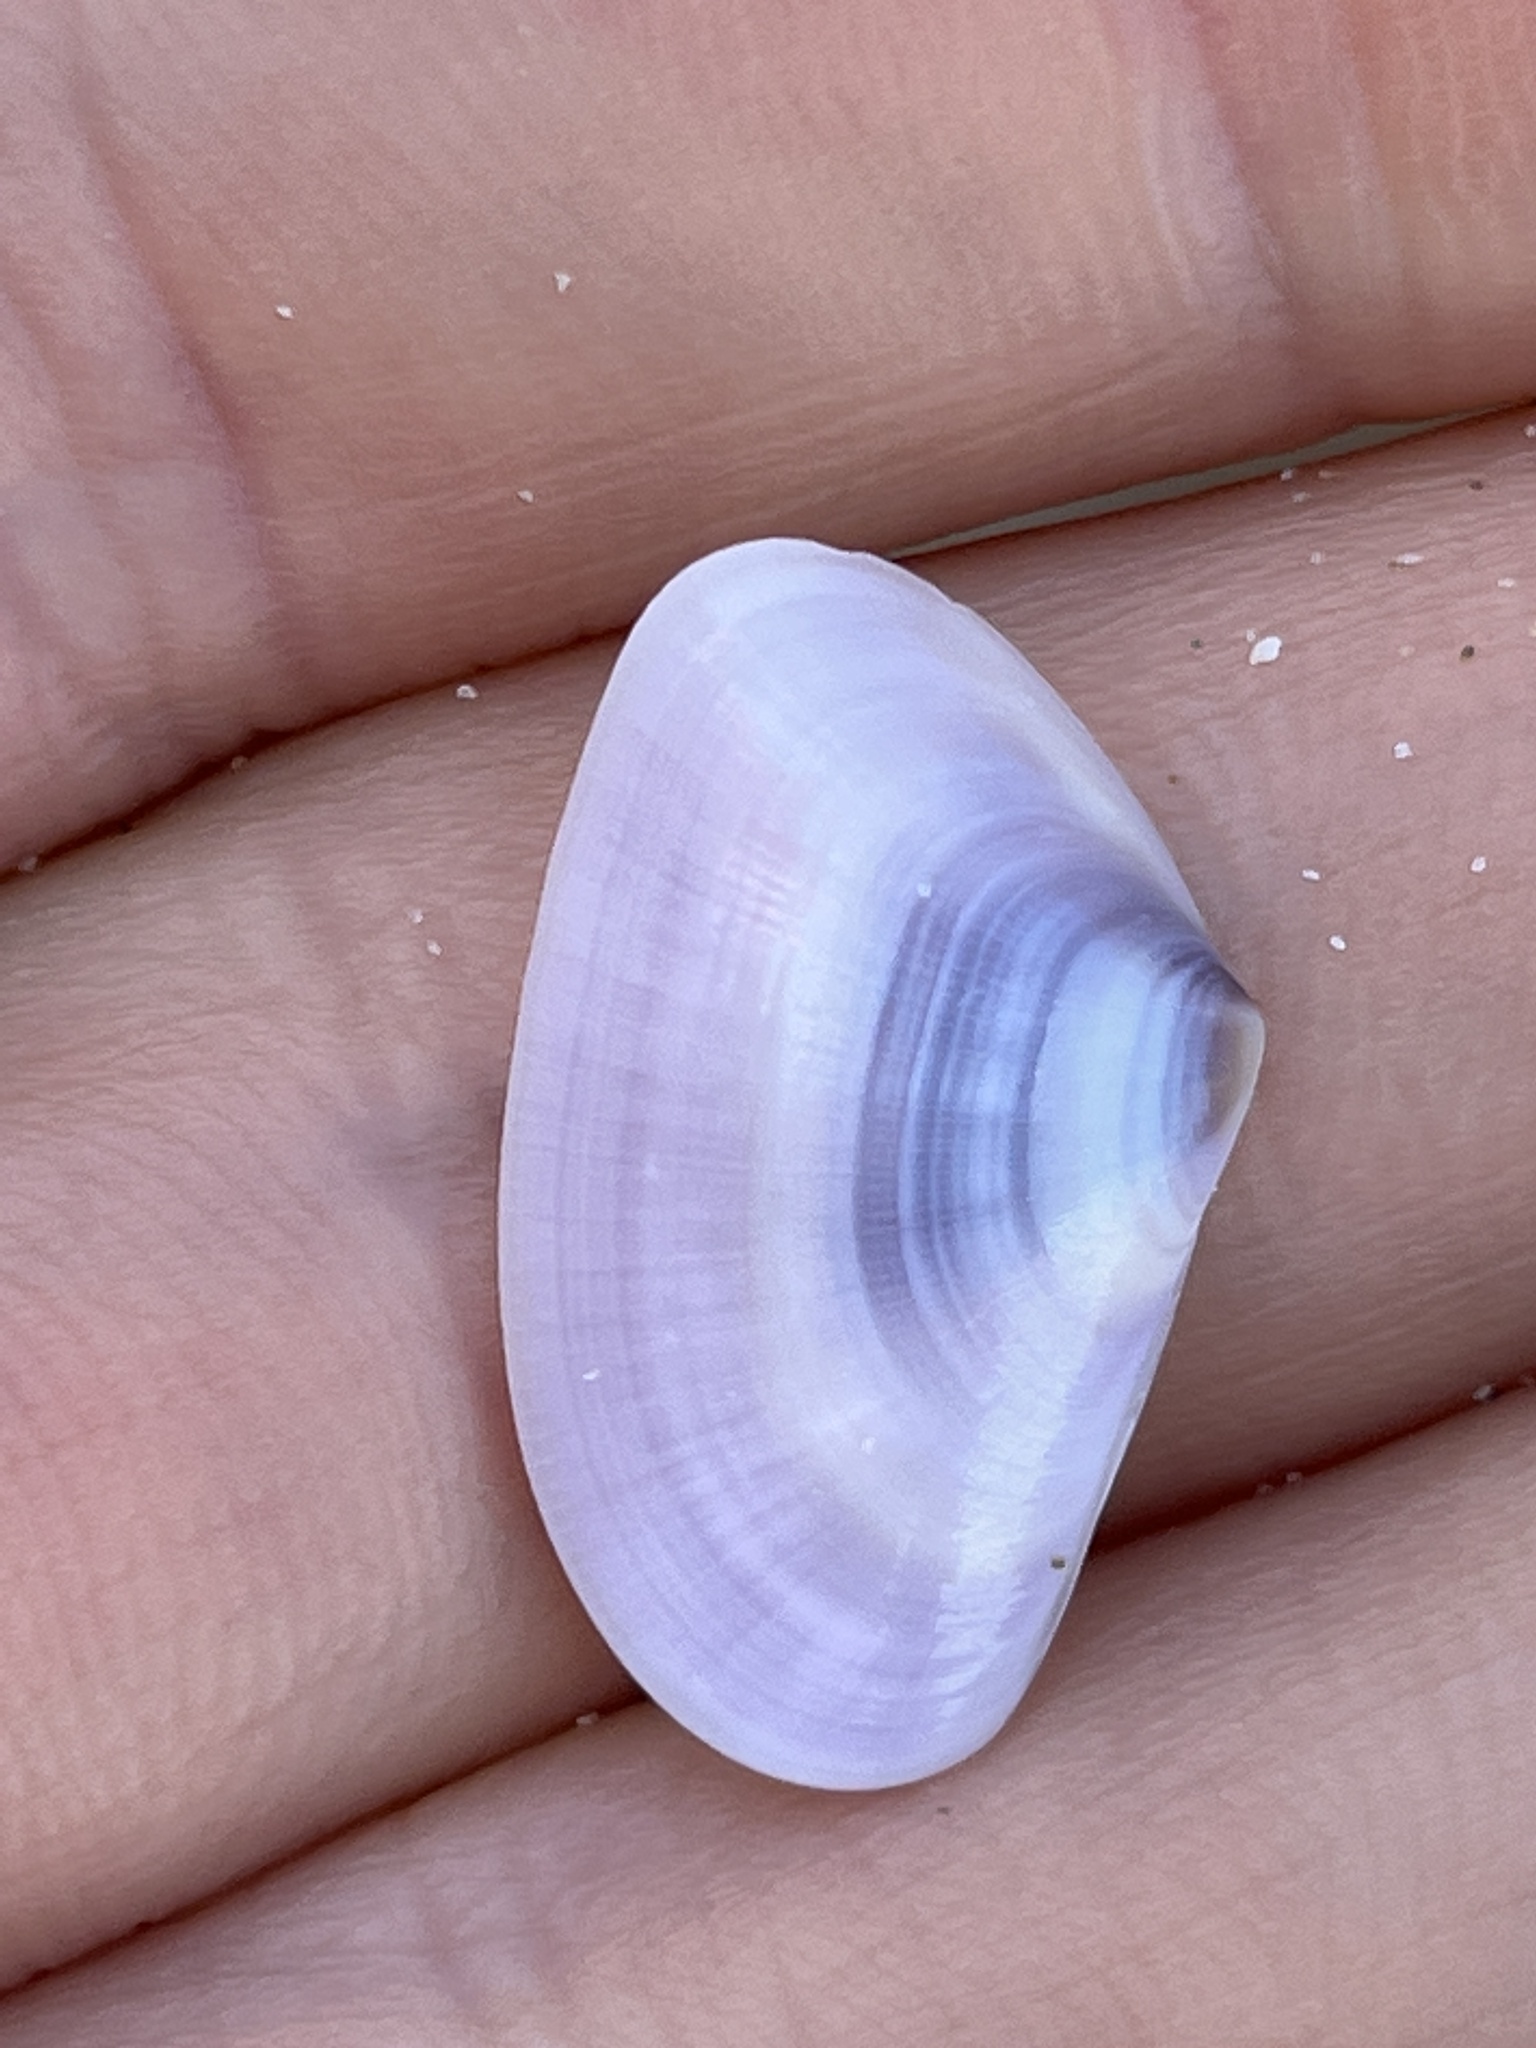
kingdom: Animalia
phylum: Mollusca
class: Bivalvia
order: Cardiida
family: Donacidae
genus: Donax
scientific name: Donax trunculus
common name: Truncate donax
